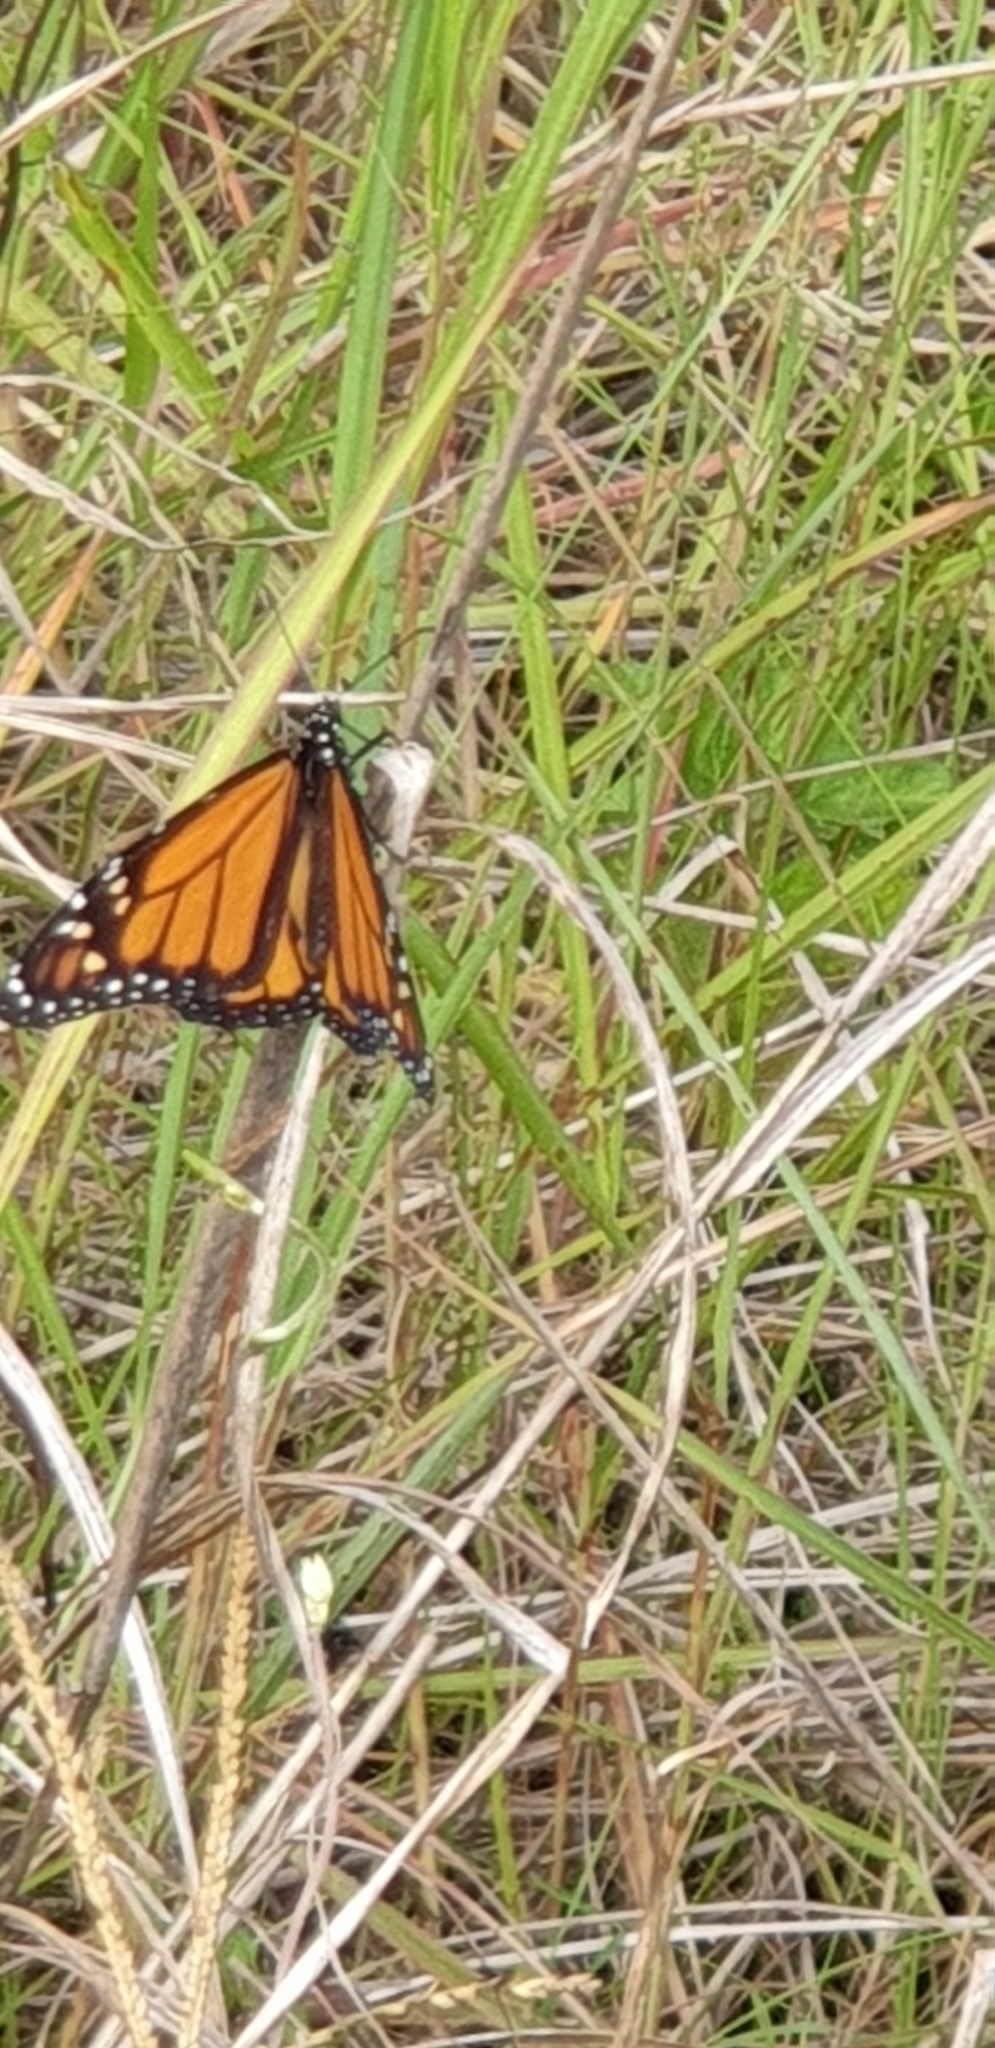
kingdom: Animalia
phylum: Arthropoda
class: Insecta
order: Lepidoptera
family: Nymphalidae
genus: Danaus
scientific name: Danaus plexippus
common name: Monarch
